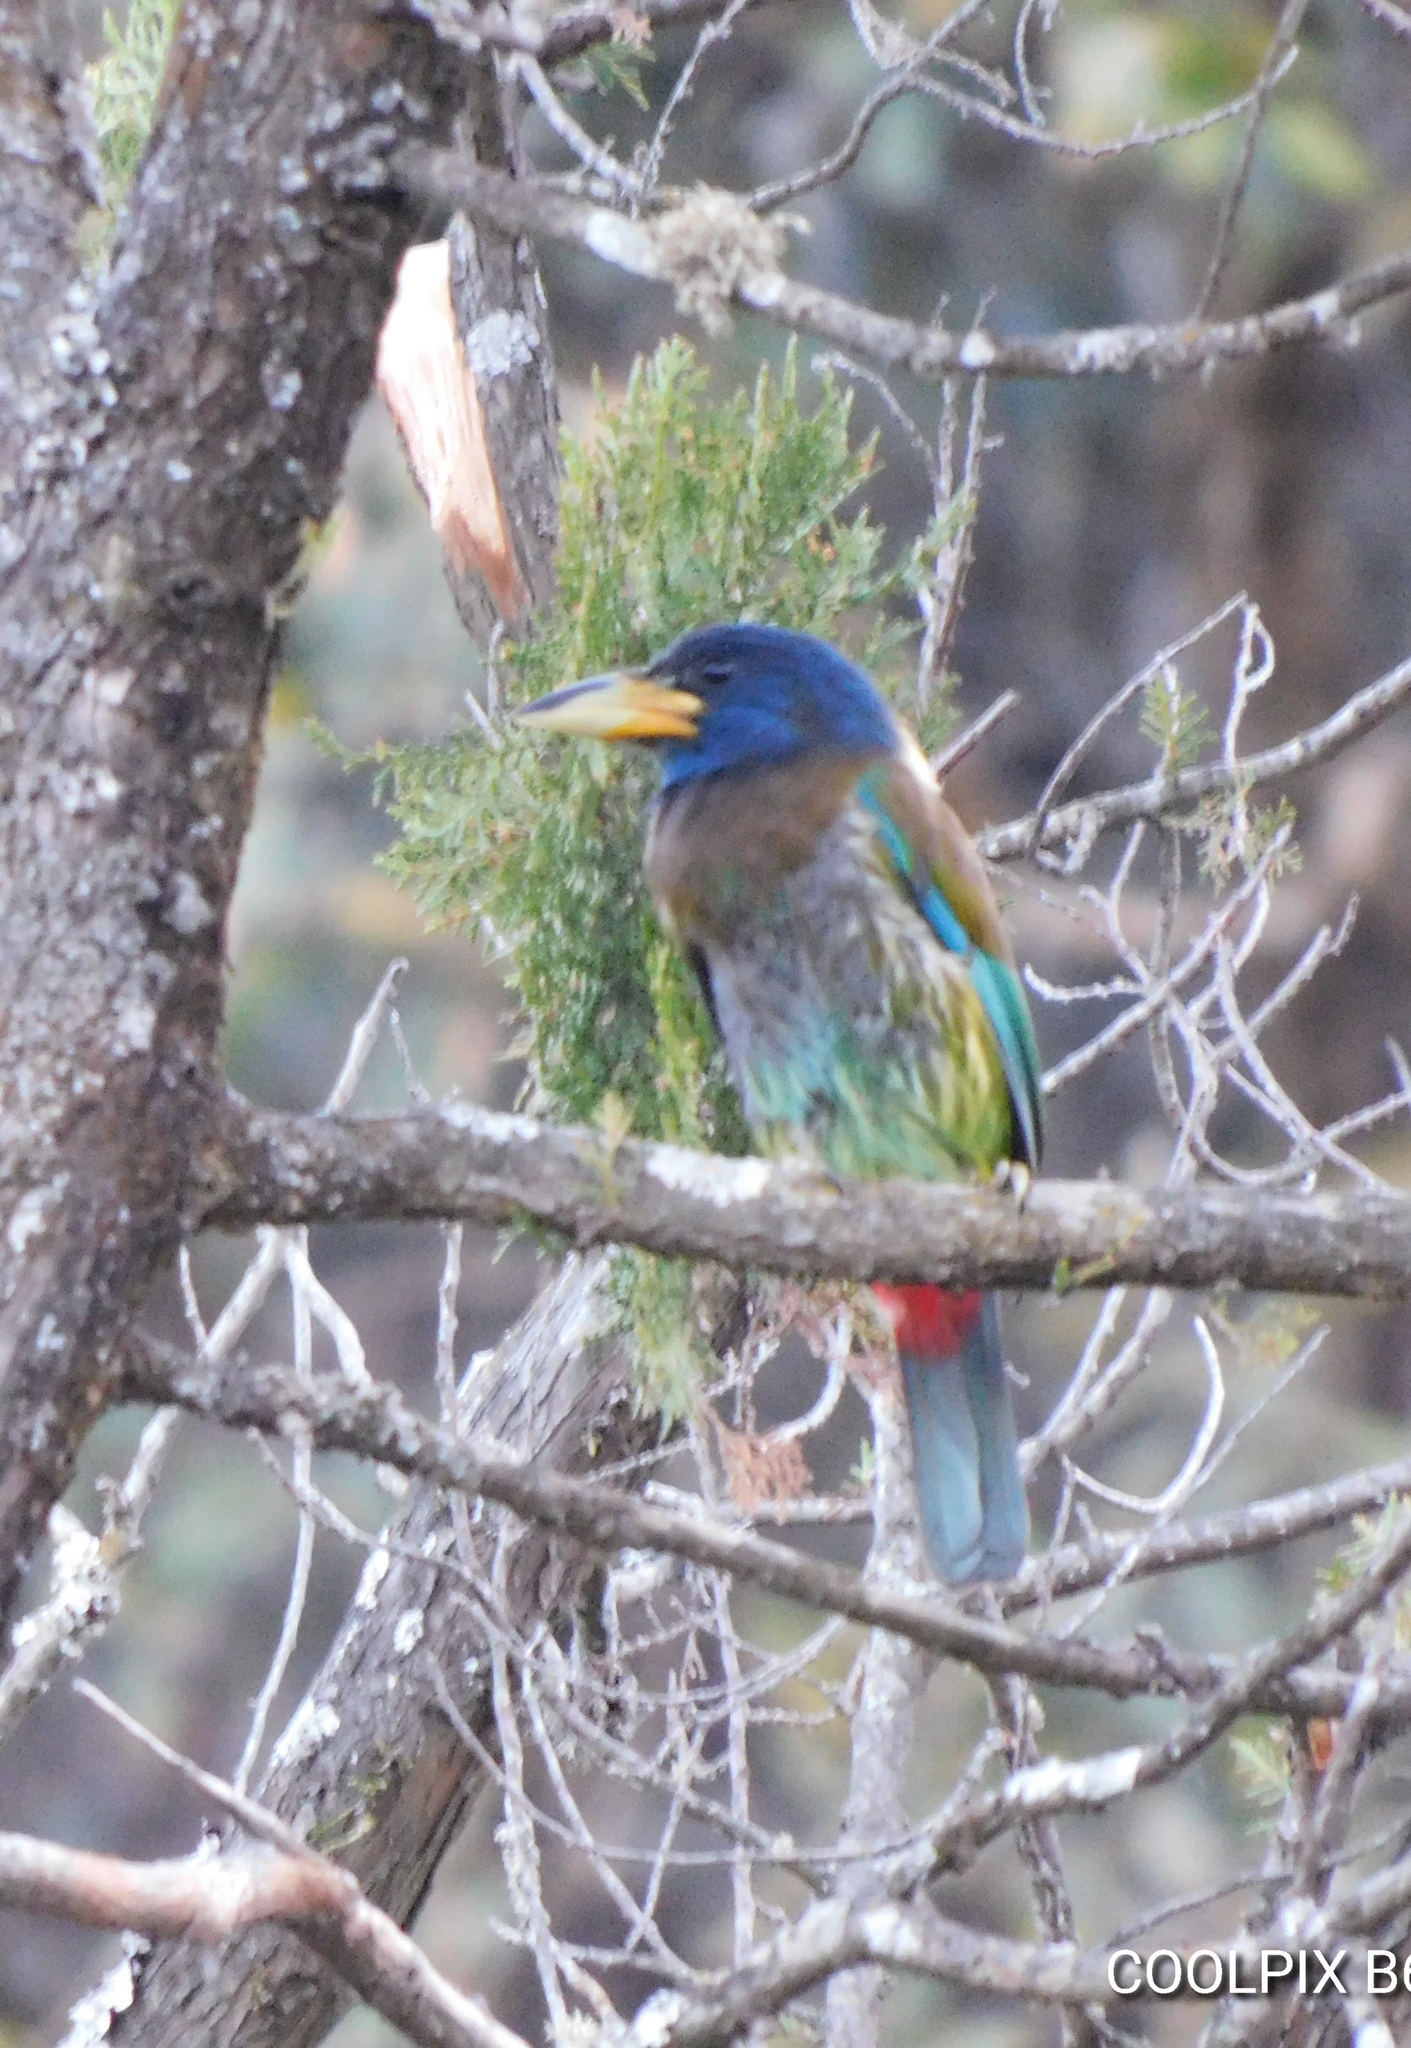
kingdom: Animalia
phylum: Chordata
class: Aves
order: Piciformes
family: Megalaimidae
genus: Psilopogon
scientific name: Psilopogon virens
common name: Great barbet
